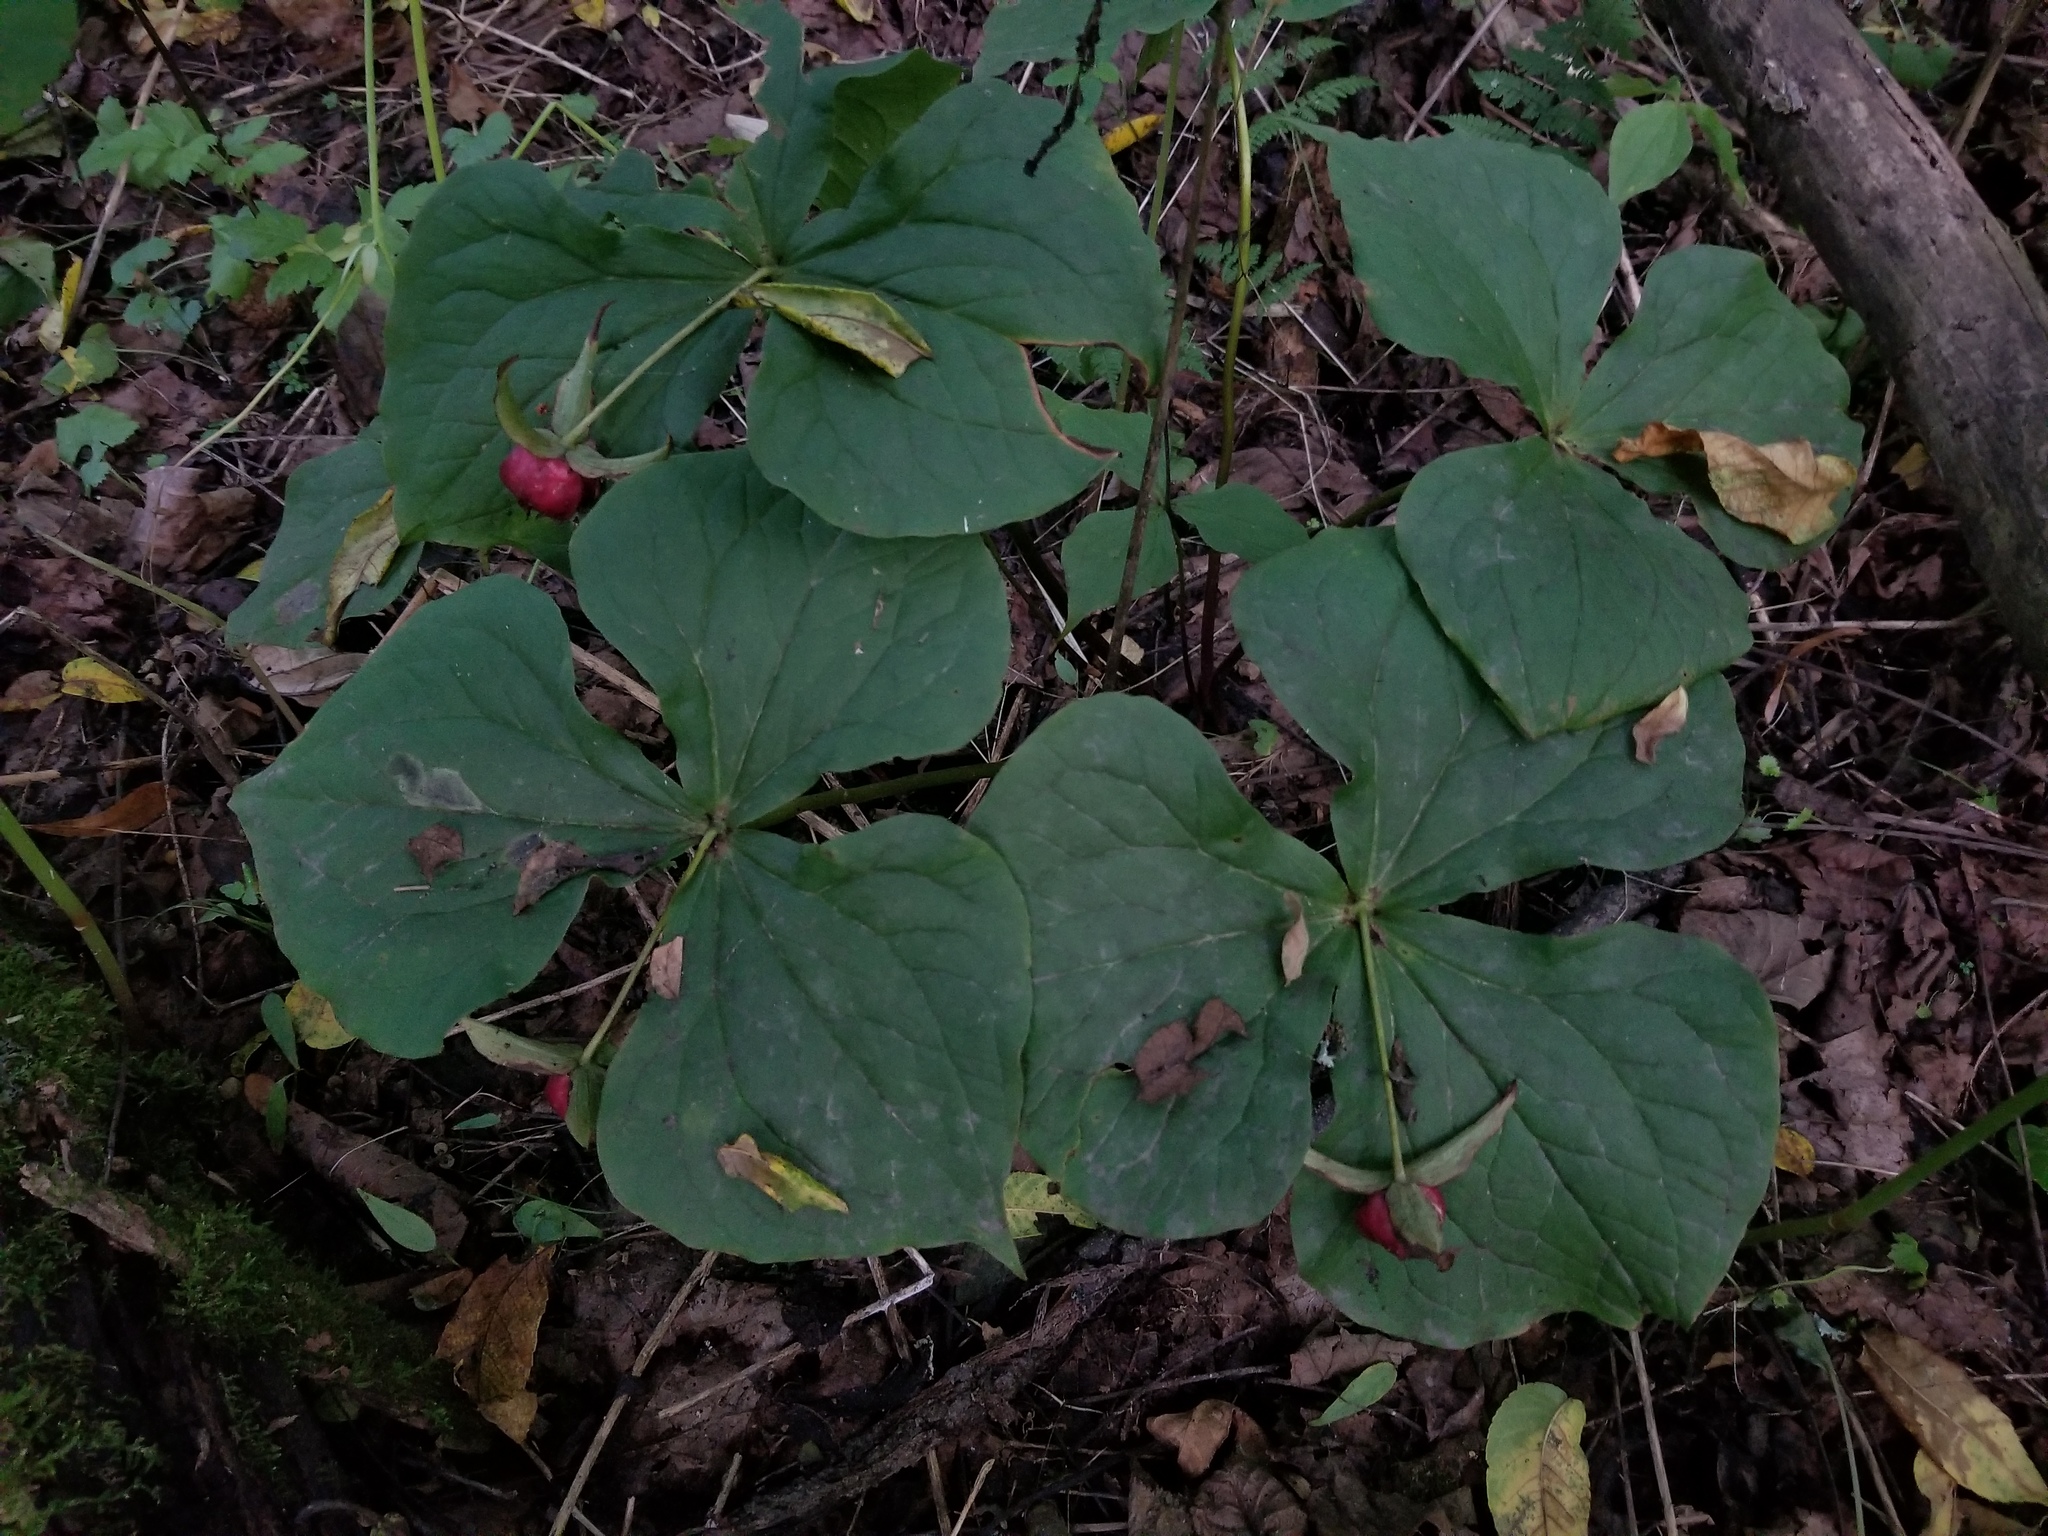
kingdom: Plantae
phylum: Tracheophyta
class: Liliopsida
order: Liliales
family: Melanthiaceae
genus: Trillium
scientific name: Trillium erectum
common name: Purple trillium
